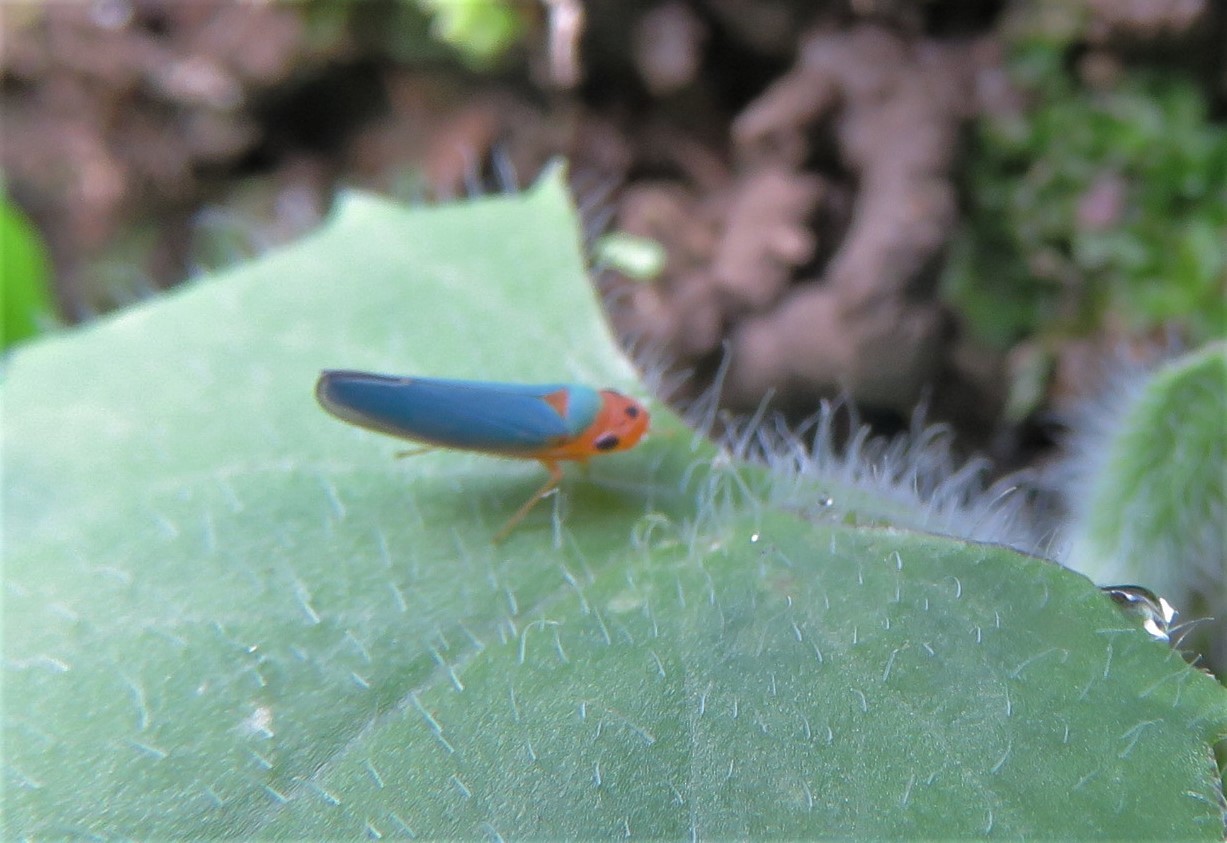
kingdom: Animalia
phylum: Arthropoda
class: Insecta
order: Hemiptera
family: Cicadellidae
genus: Macunolla
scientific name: Macunolla ventralis
